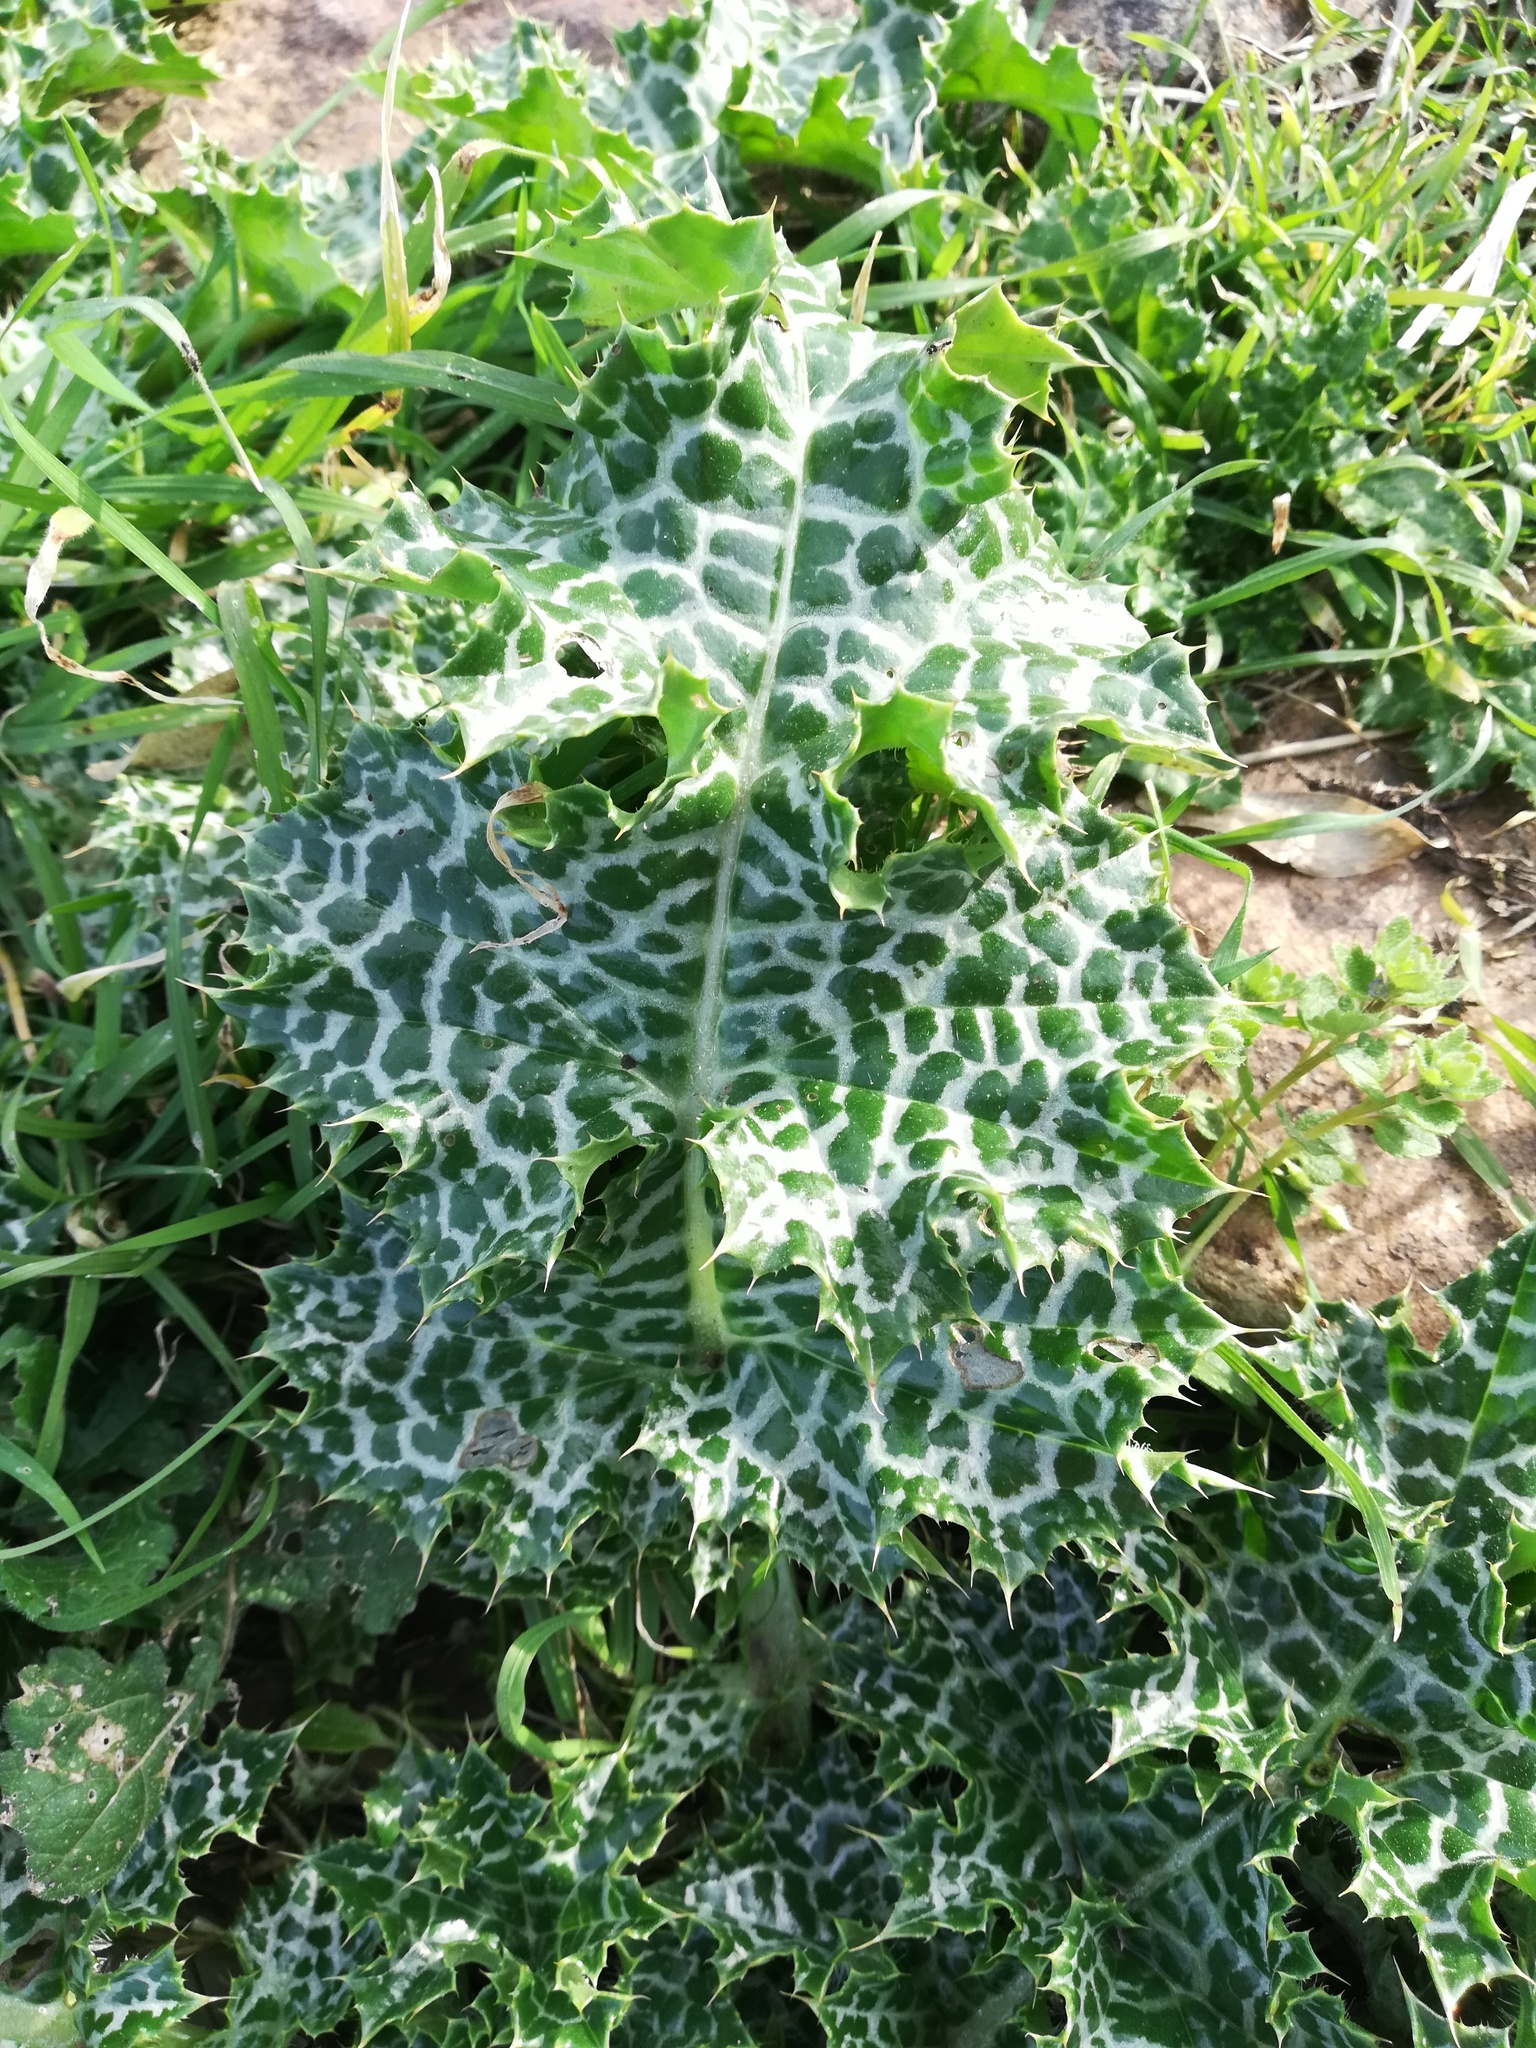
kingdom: Plantae
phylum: Tracheophyta
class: Magnoliopsida
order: Asterales
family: Asteraceae
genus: Silybum
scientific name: Silybum marianum
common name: Milk thistle
